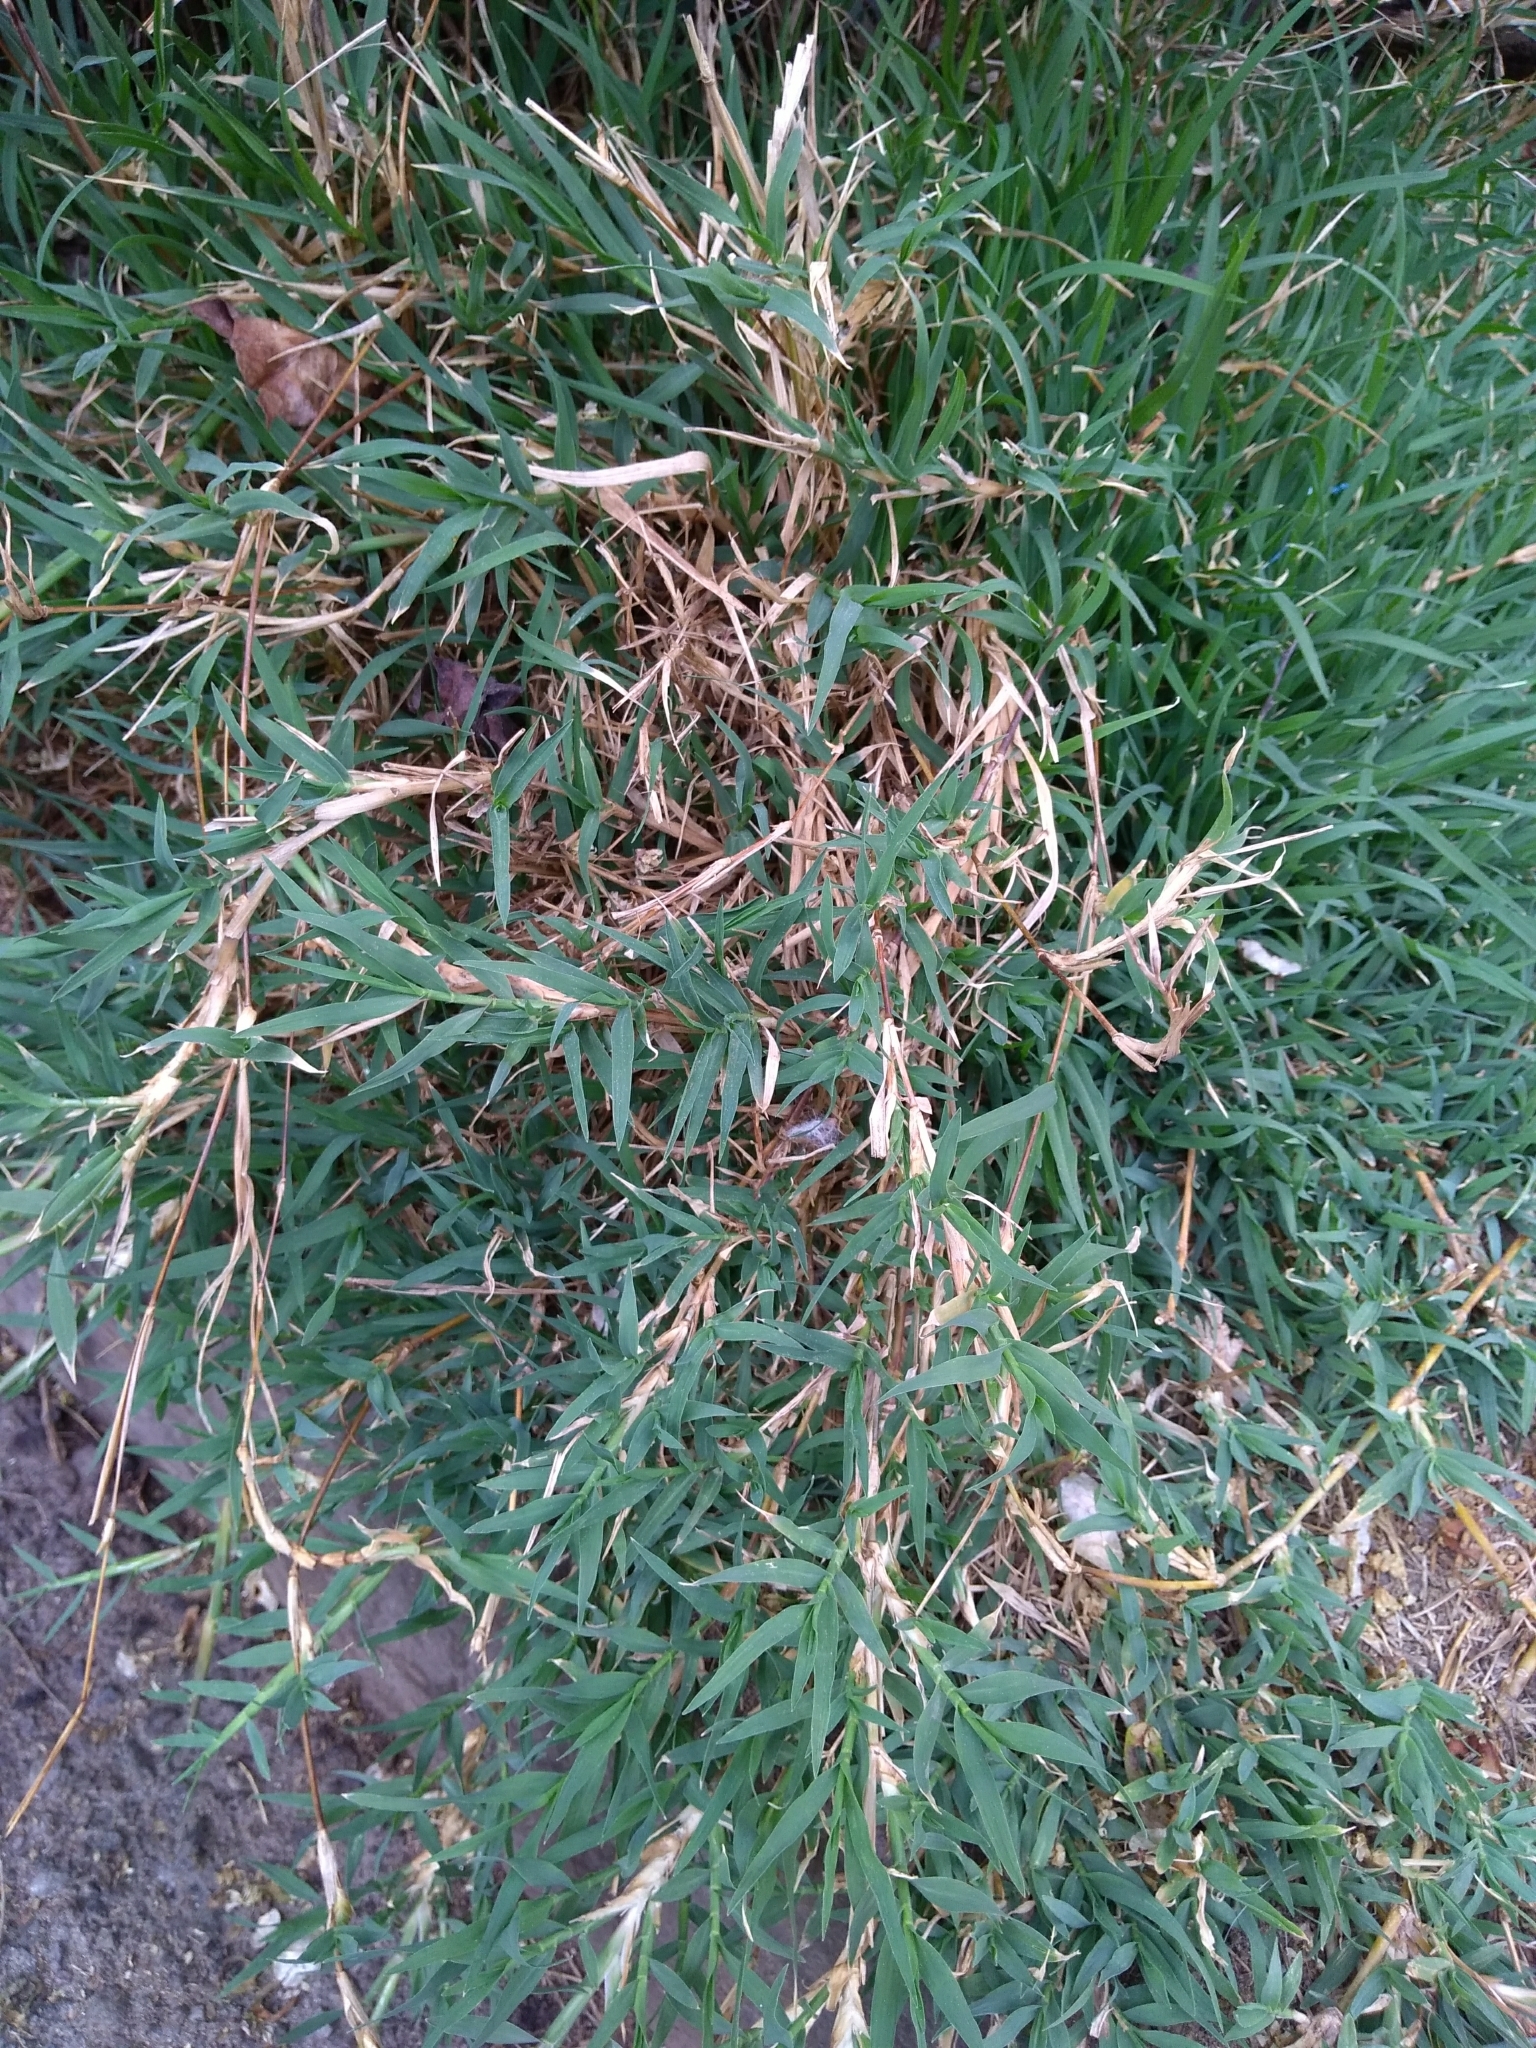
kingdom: Plantae
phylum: Tracheophyta
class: Liliopsida
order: Poales
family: Poaceae
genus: Cynodon
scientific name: Cynodon dactylon
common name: Bermuda grass
